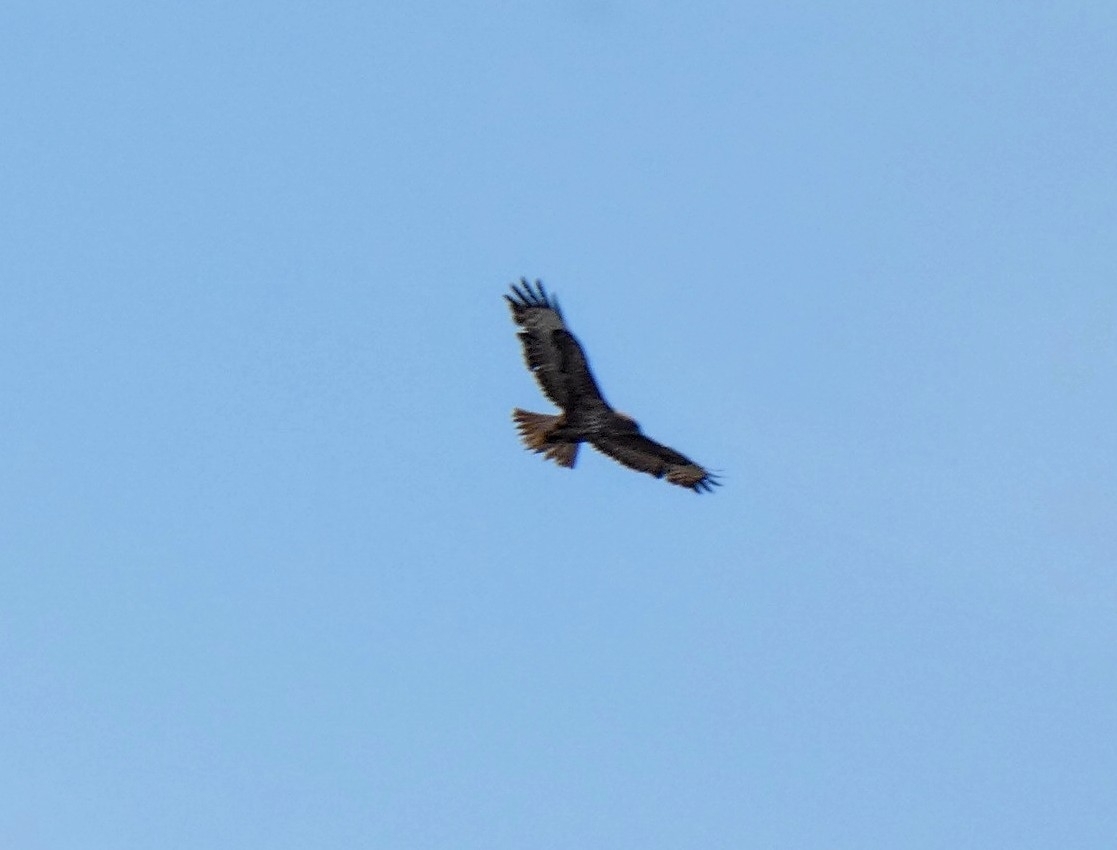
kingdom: Animalia
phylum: Chordata
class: Aves
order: Accipitriformes
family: Accipitridae
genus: Buteo
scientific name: Buteo buteo
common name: Common buzzard
